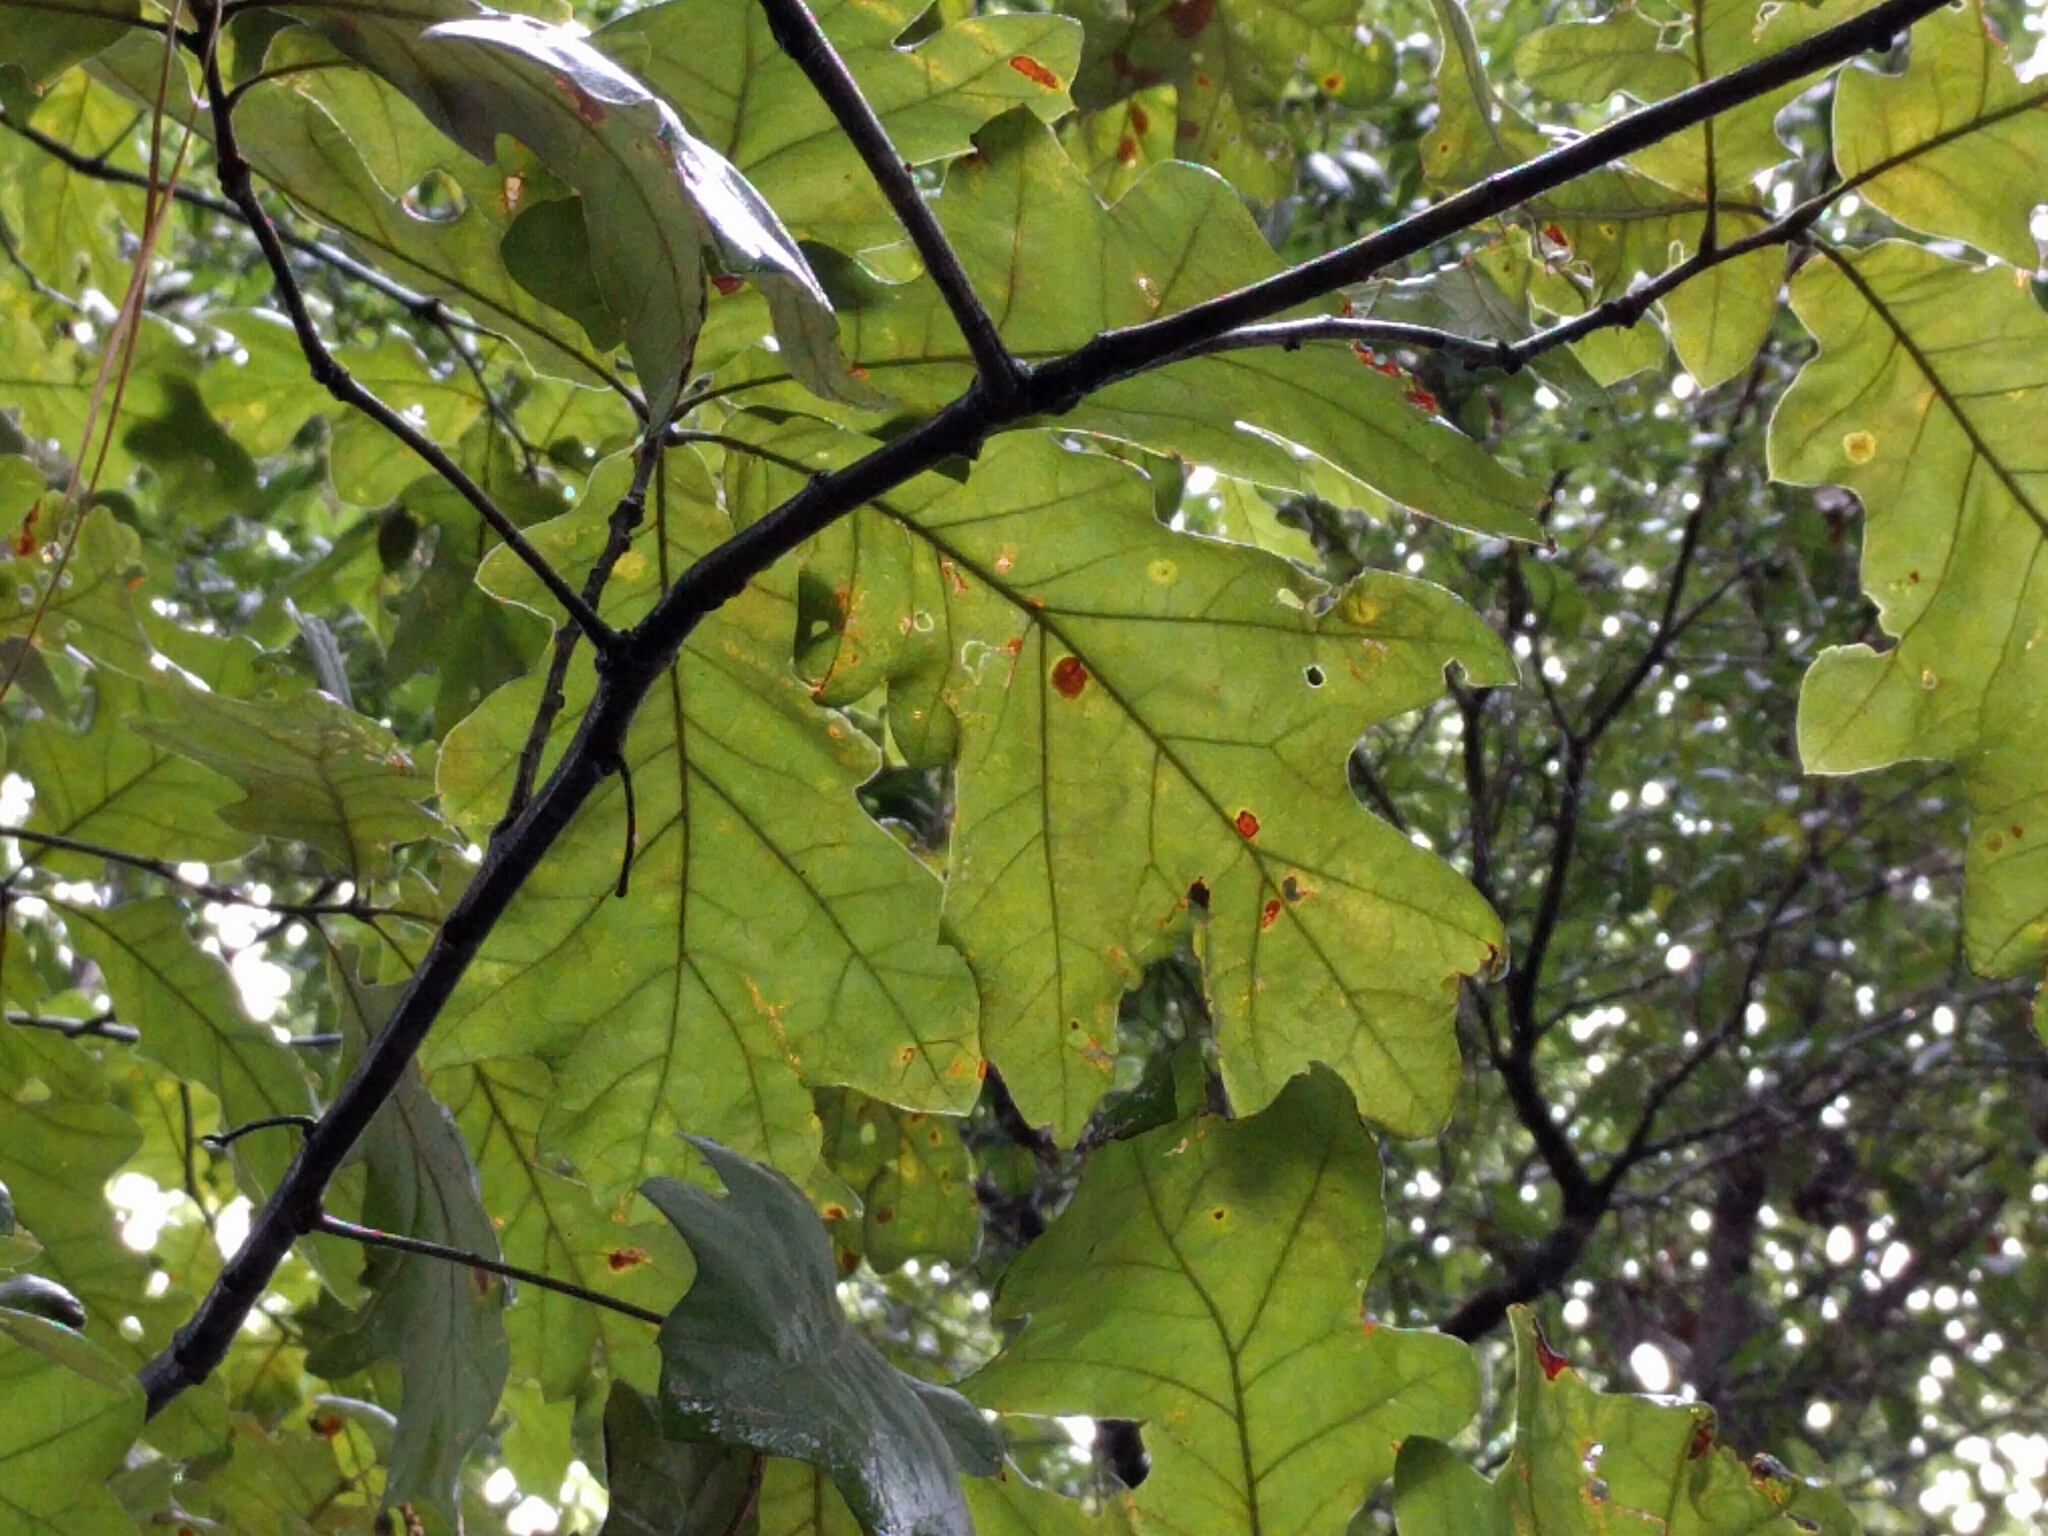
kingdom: Plantae
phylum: Tracheophyta
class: Magnoliopsida
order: Fagales
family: Fagaceae
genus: Quercus
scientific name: Quercus pagoda
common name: Cherrybark oak
